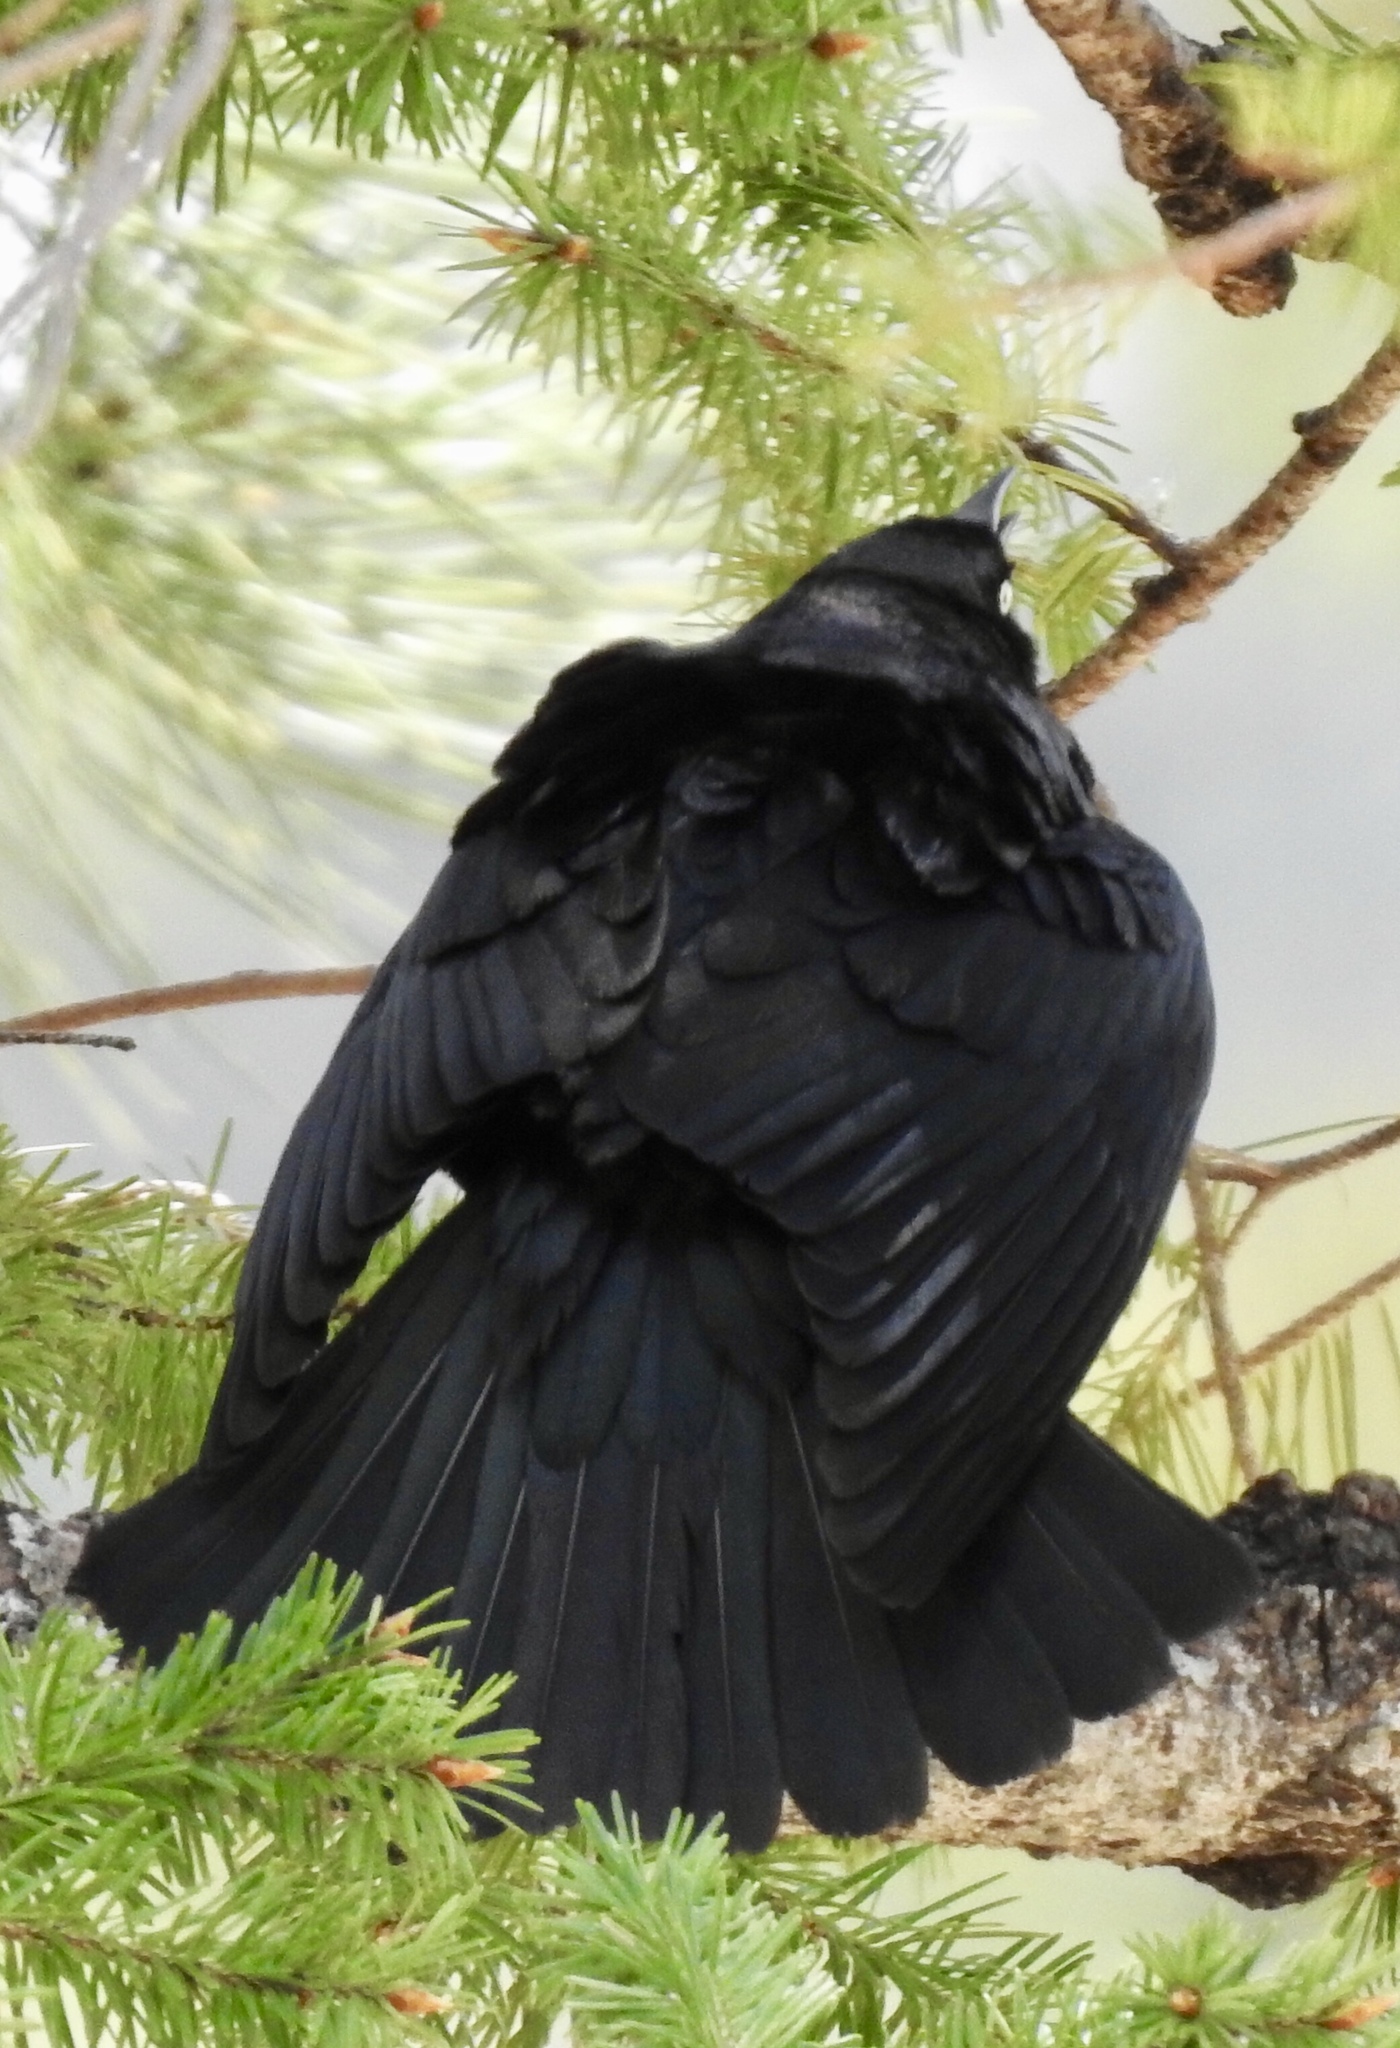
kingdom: Animalia
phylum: Chordata
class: Aves
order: Passeriformes
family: Icteridae
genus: Euphagus
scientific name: Euphagus cyanocephalus
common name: Brewer's blackbird
